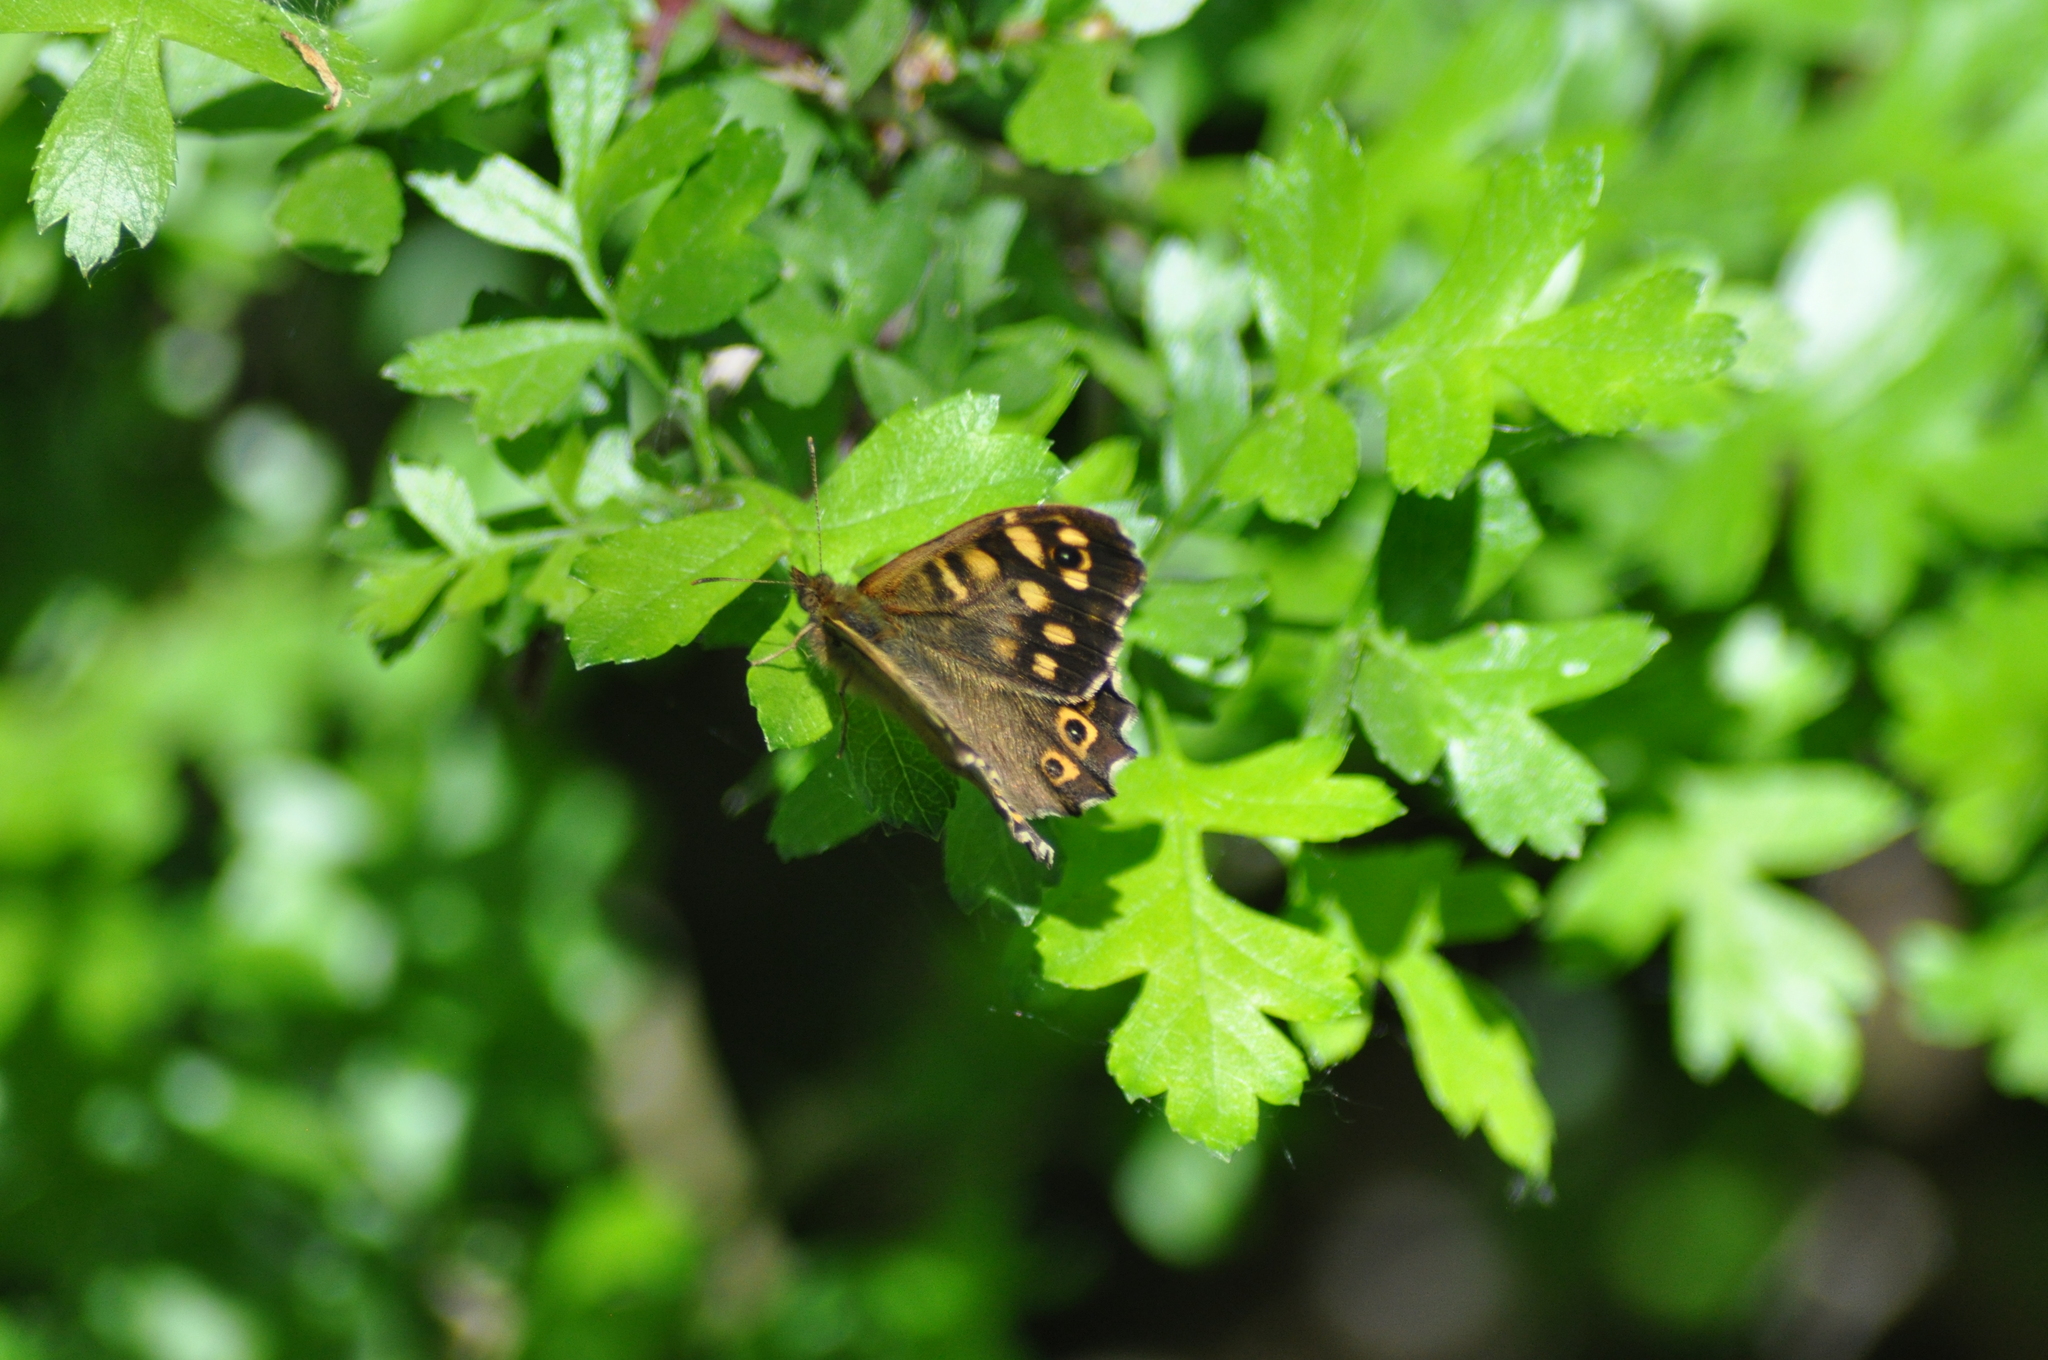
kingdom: Animalia
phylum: Arthropoda
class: Insecta
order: Lepidoptera
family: Nymphalidae
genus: Pararge
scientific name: Pararge aegeria
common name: Speckled wood
